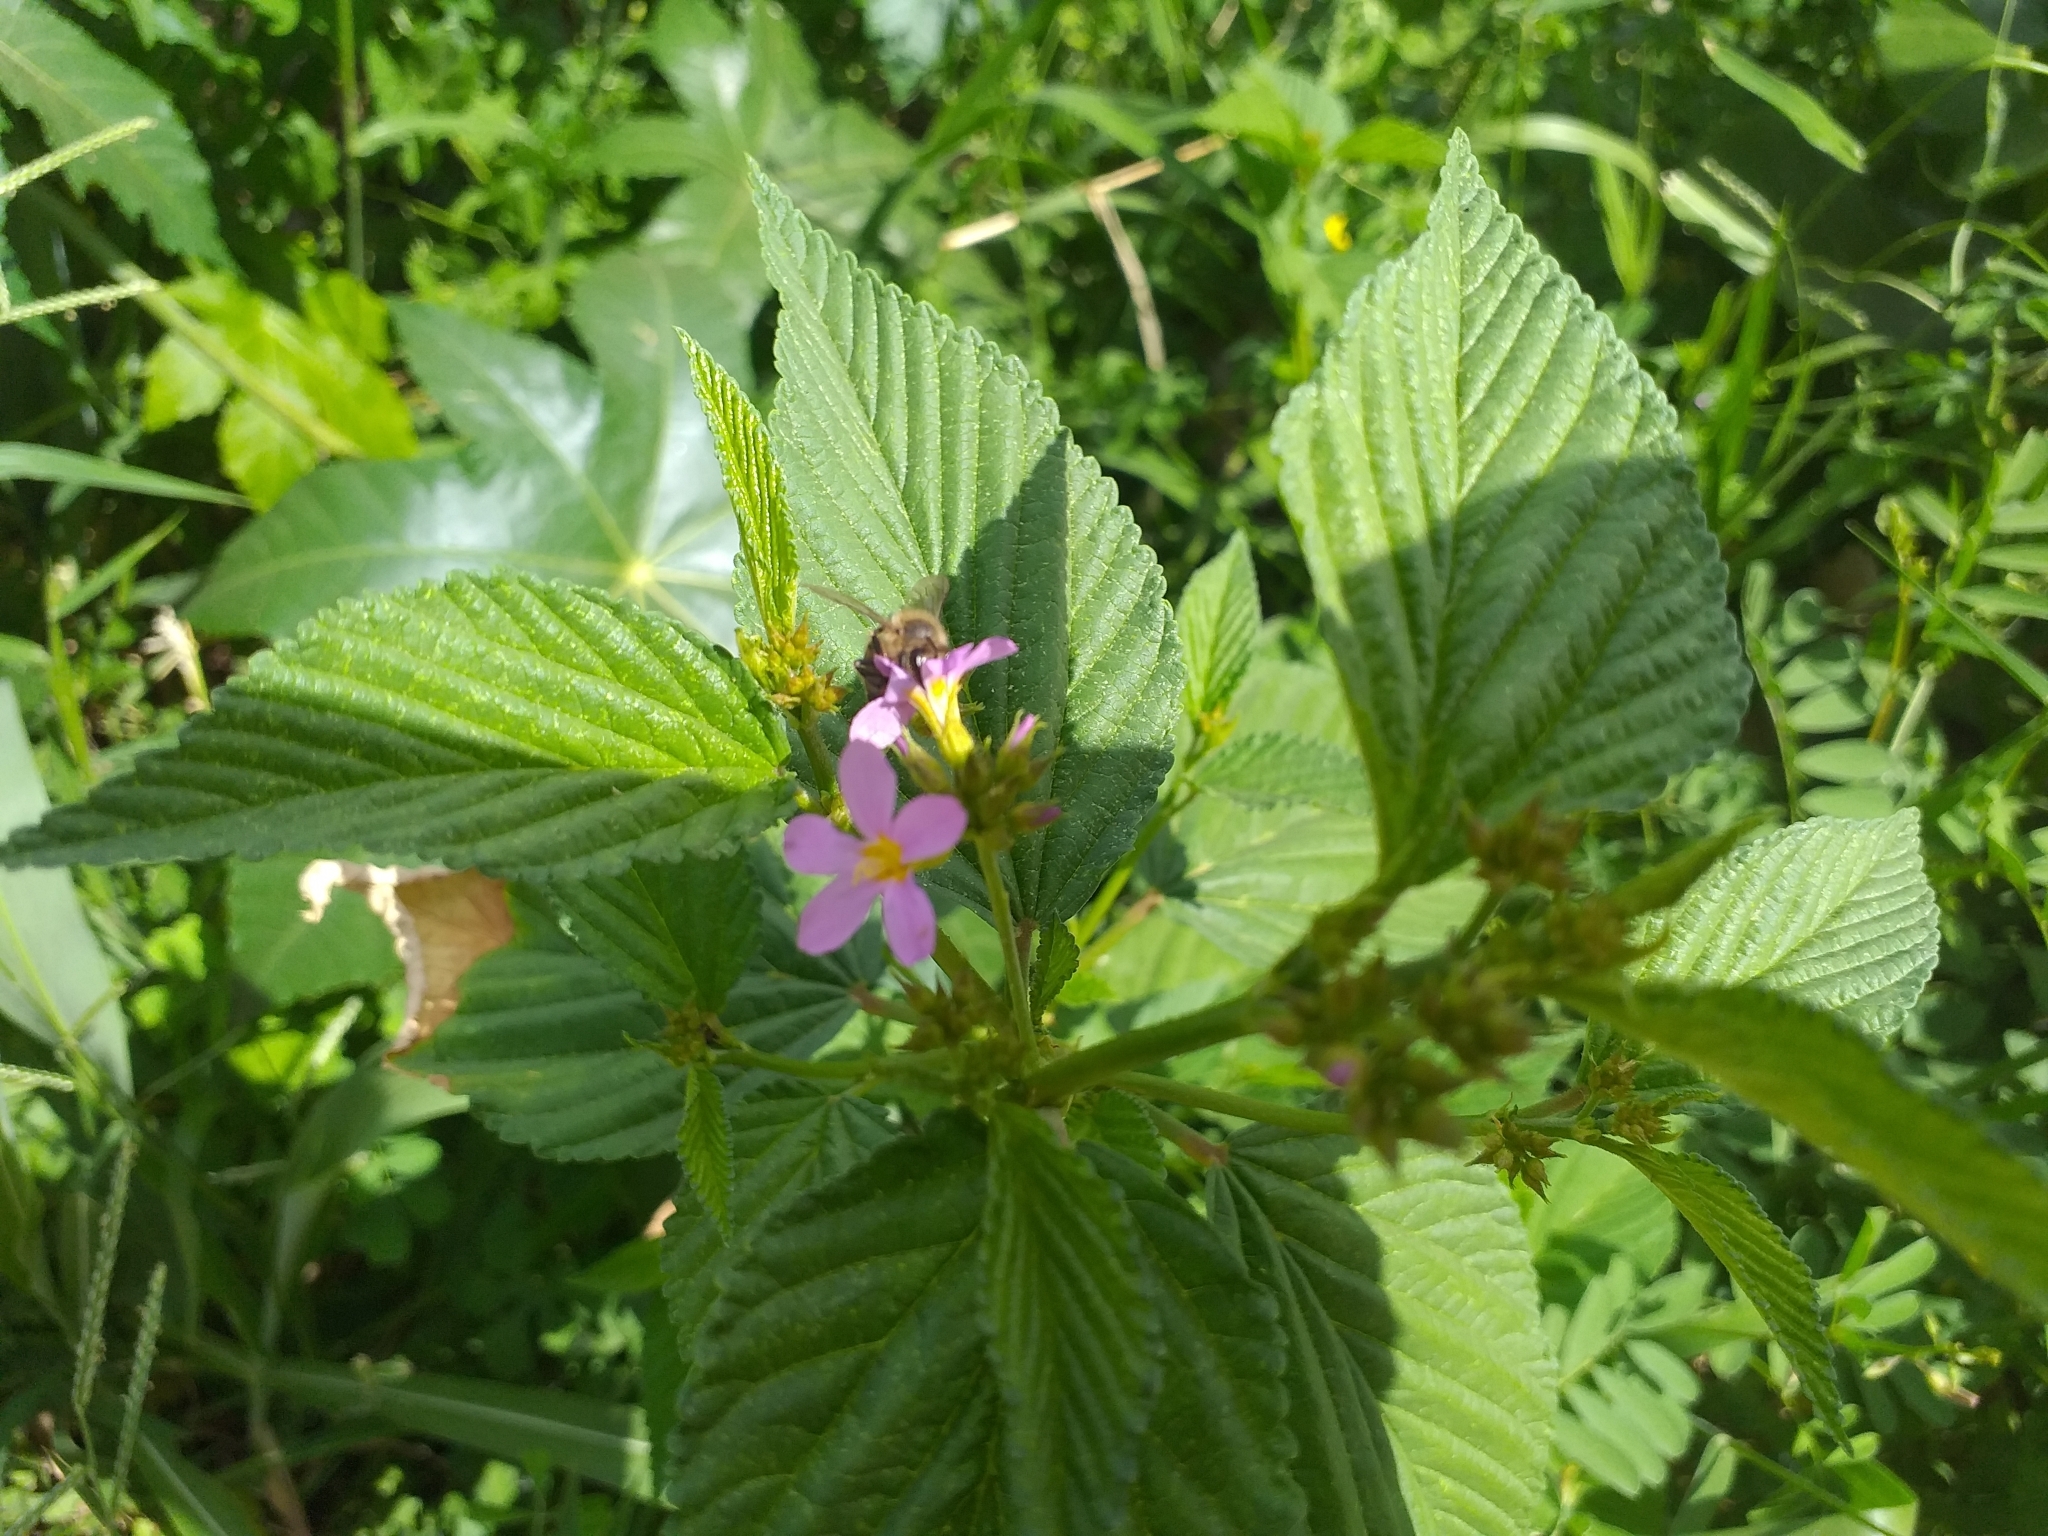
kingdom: Animalia
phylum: Arthropoda
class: Insecta
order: Hymenoptera
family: Apidae
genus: Apis
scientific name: Apis mellifera
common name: Honey bee
